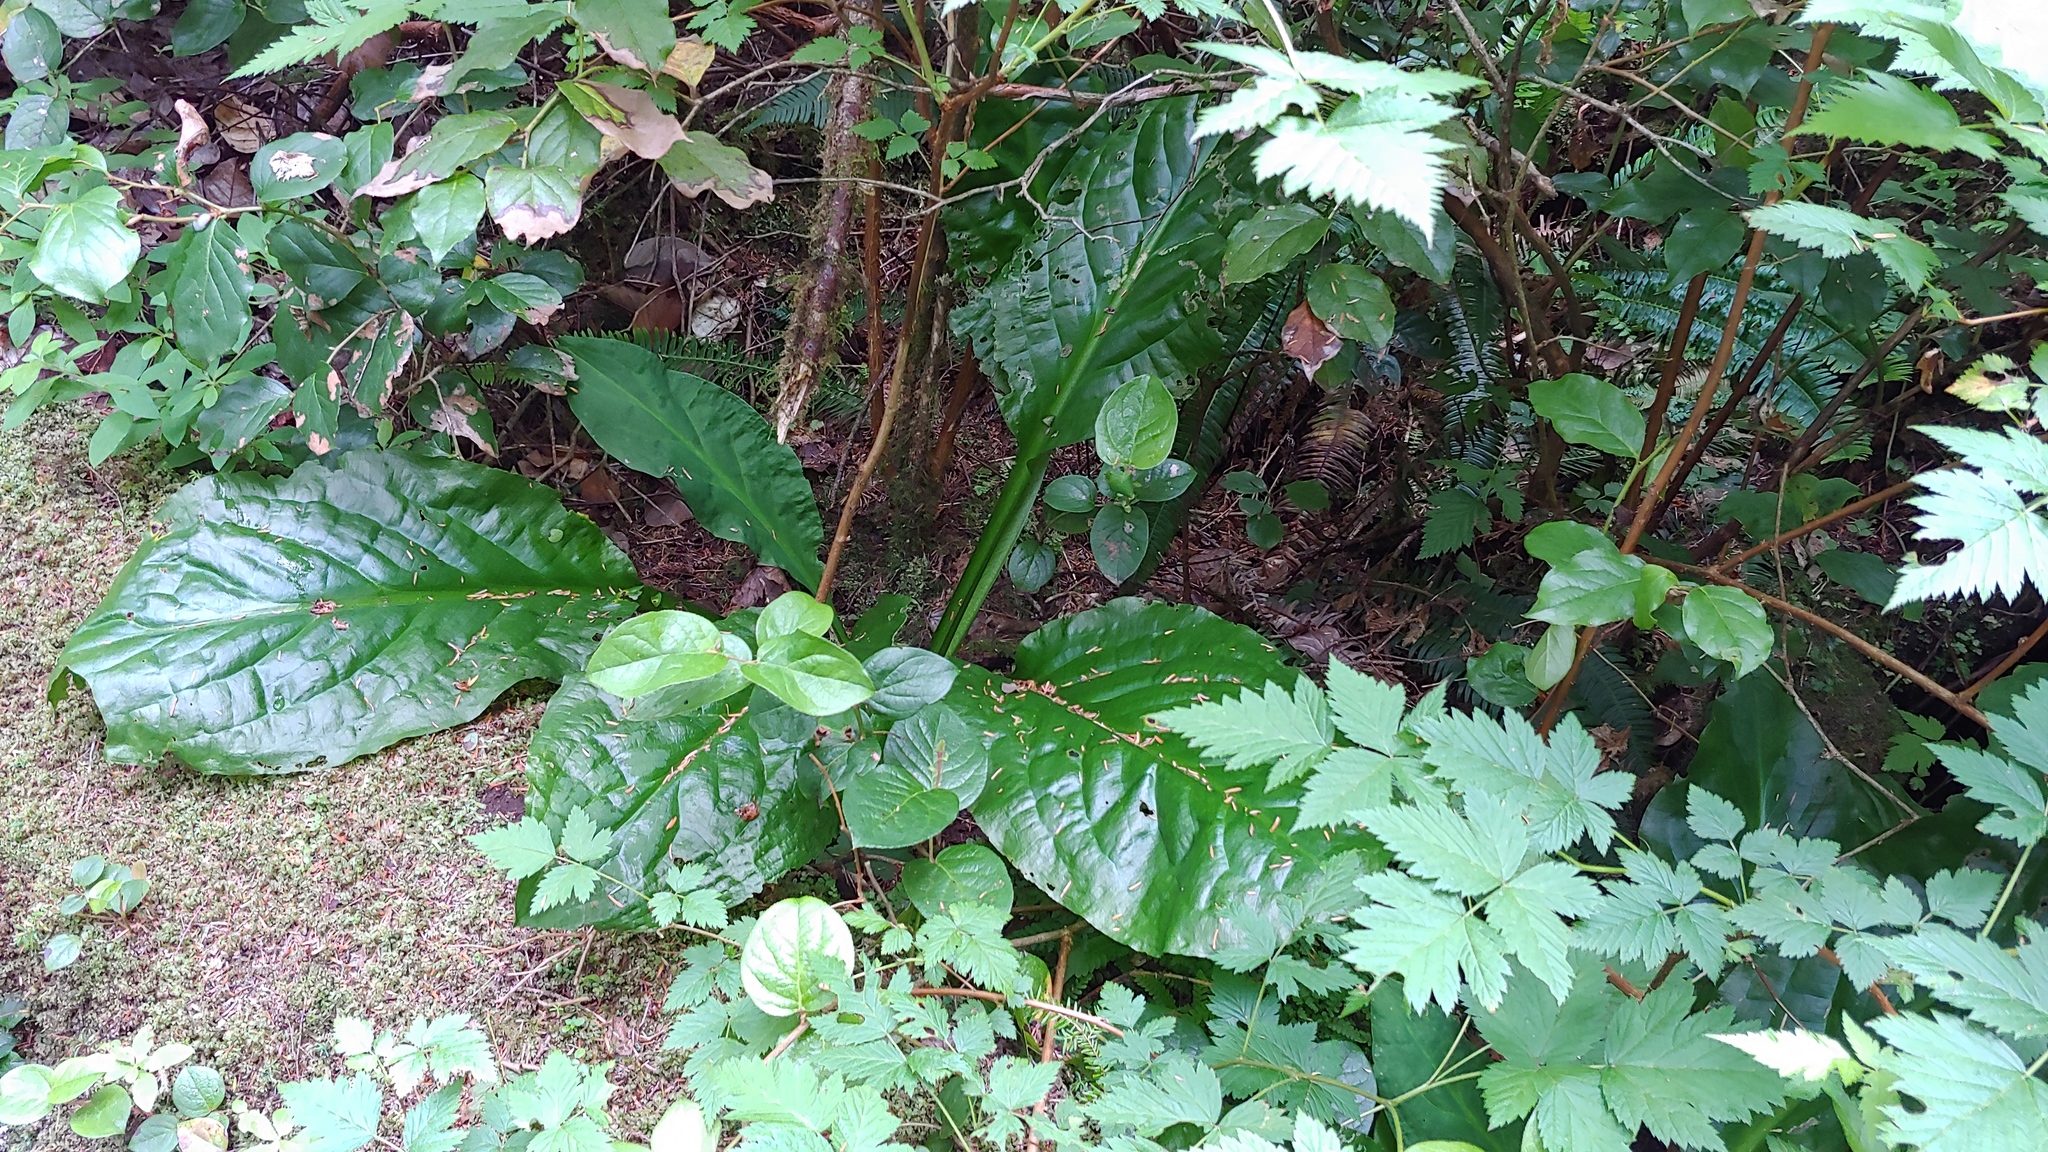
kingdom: Plantae
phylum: Tracheophyta
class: Liliopsida
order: Alismatales
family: Araceae
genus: Lysichiton
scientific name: Lysichiton americanus
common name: American skunk cabbage
